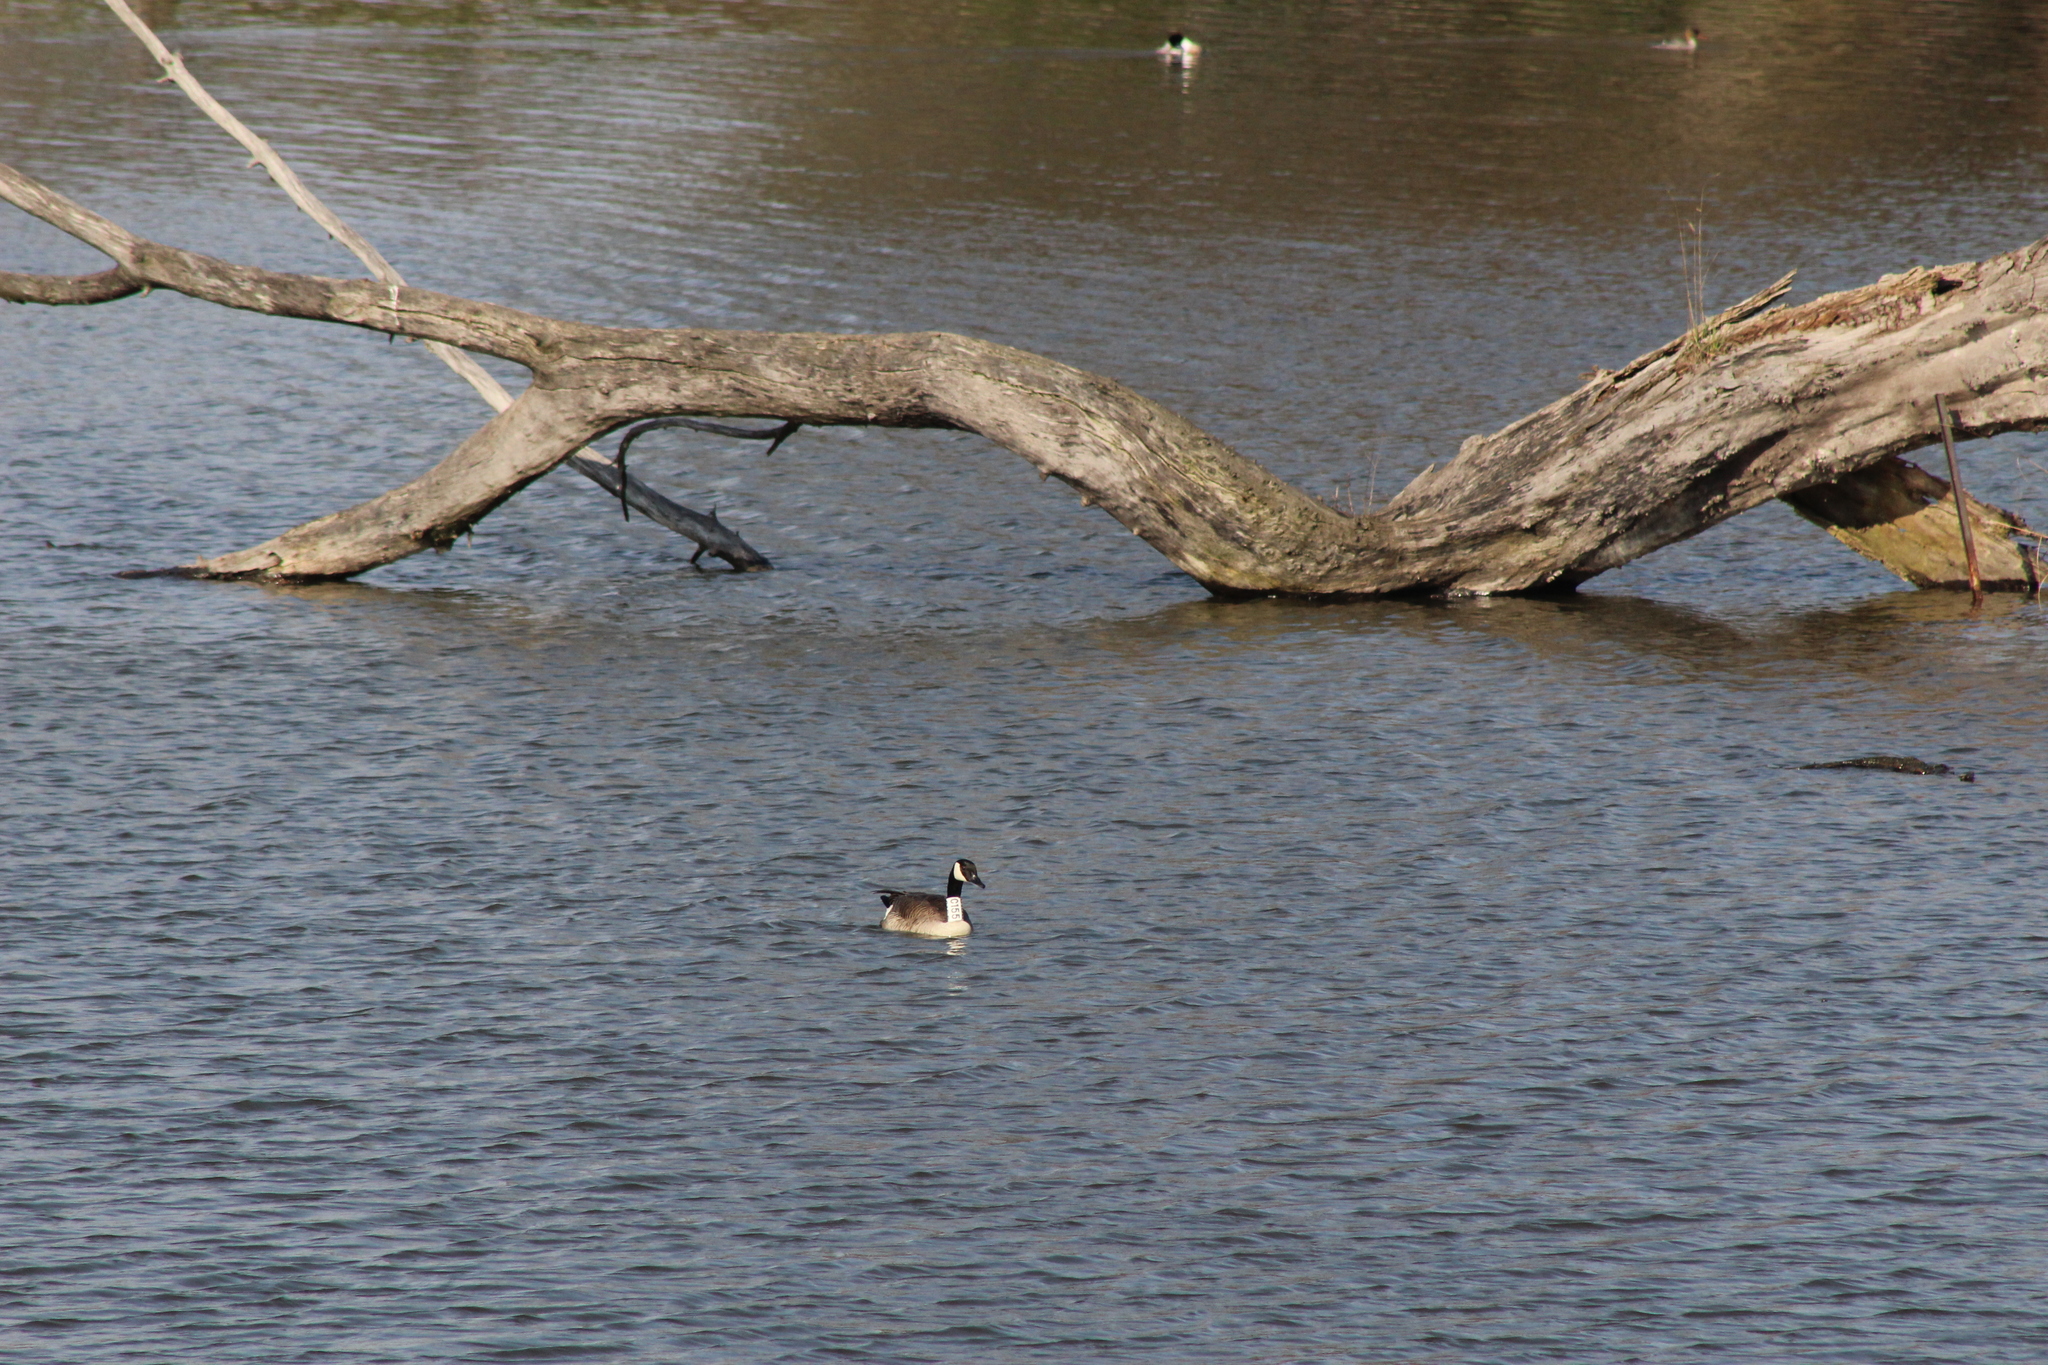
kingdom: Animalia
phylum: Chordata
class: Aves
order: Anseriformes
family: Anatidae
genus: Branta
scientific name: Branta canadensis
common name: Canada goose
